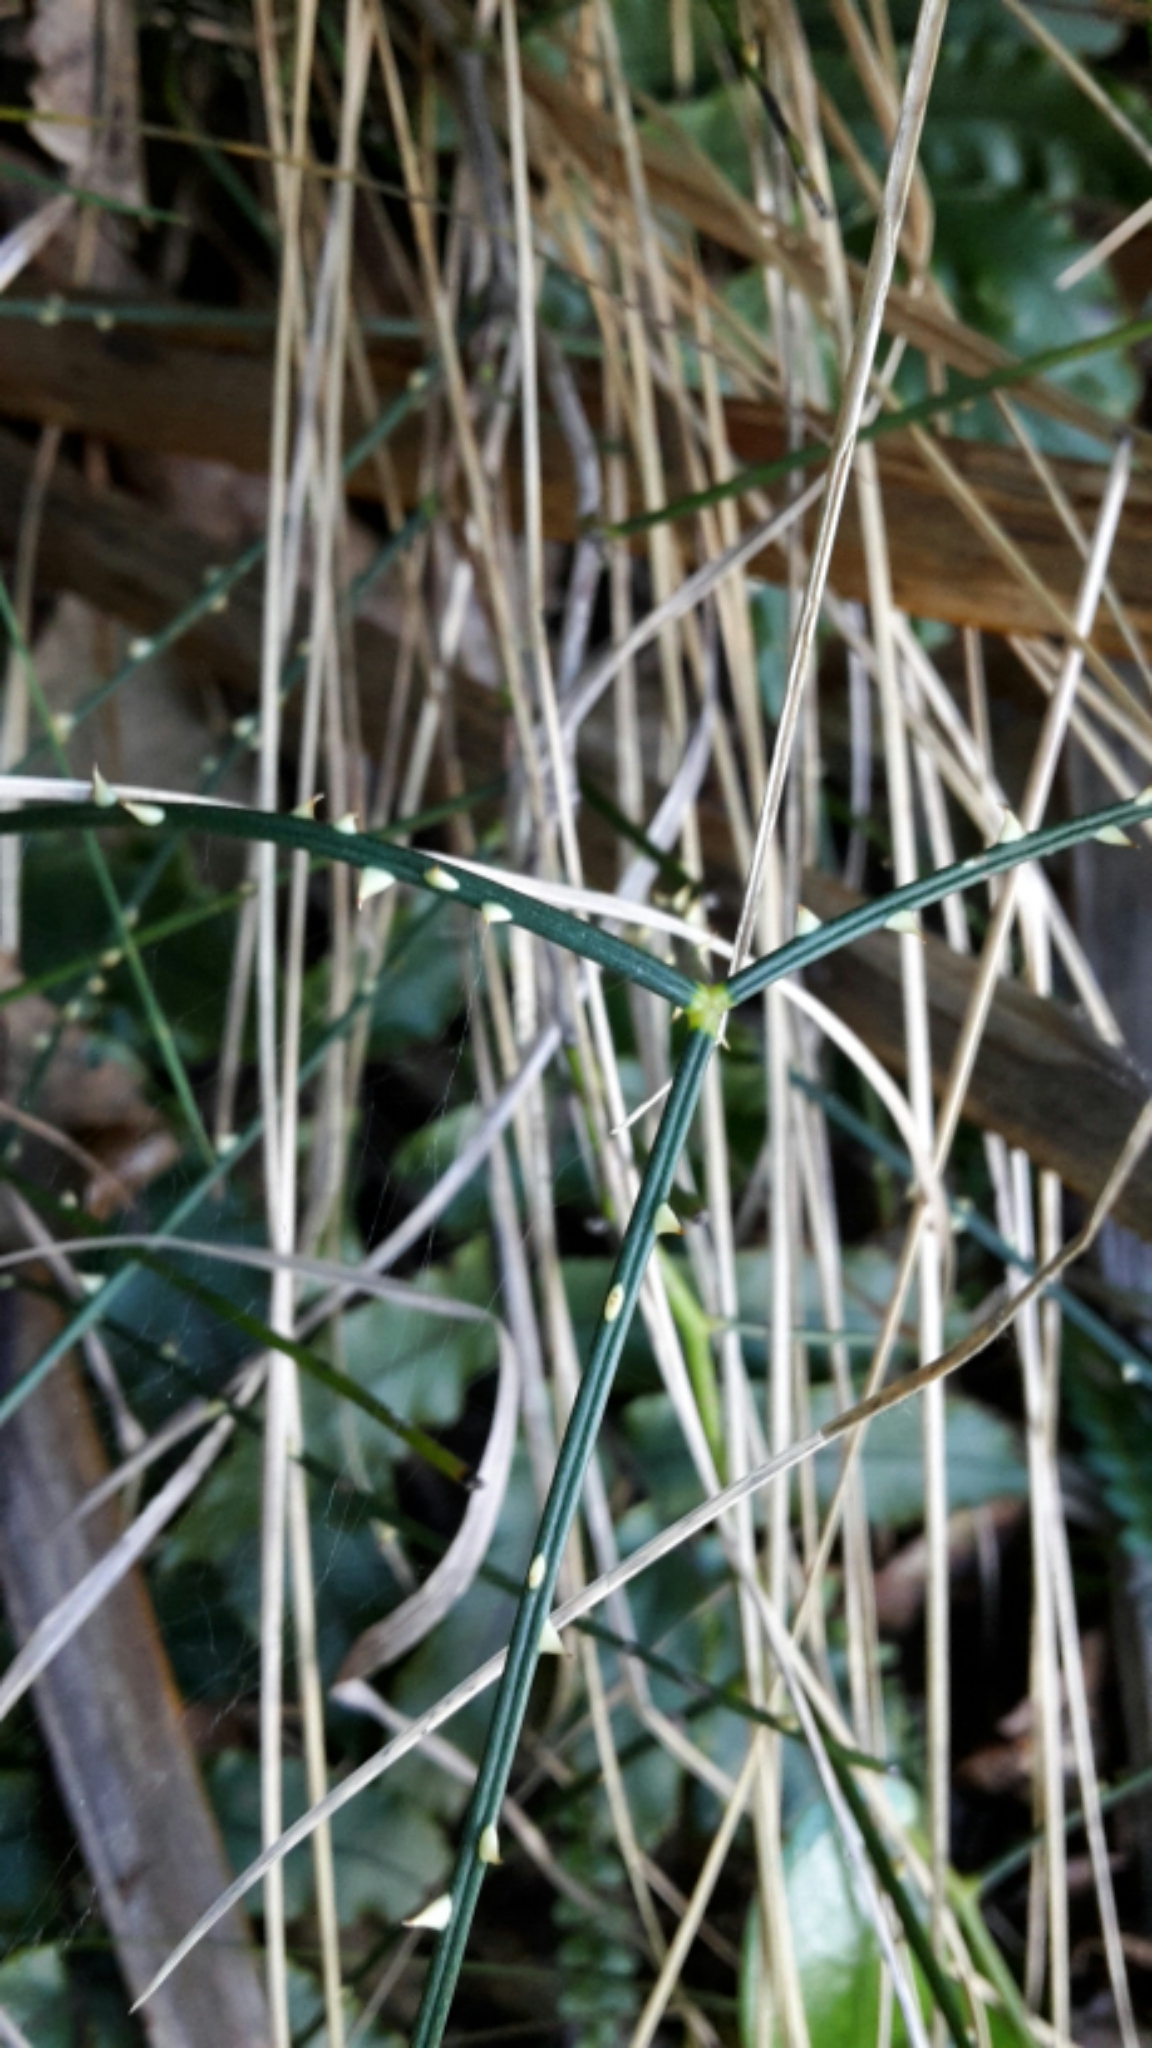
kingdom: Plantae
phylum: Tracheophyta
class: Magnoliopsida
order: Rosales
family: Rosaceae
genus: Rubus
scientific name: Rubus squarrosus
